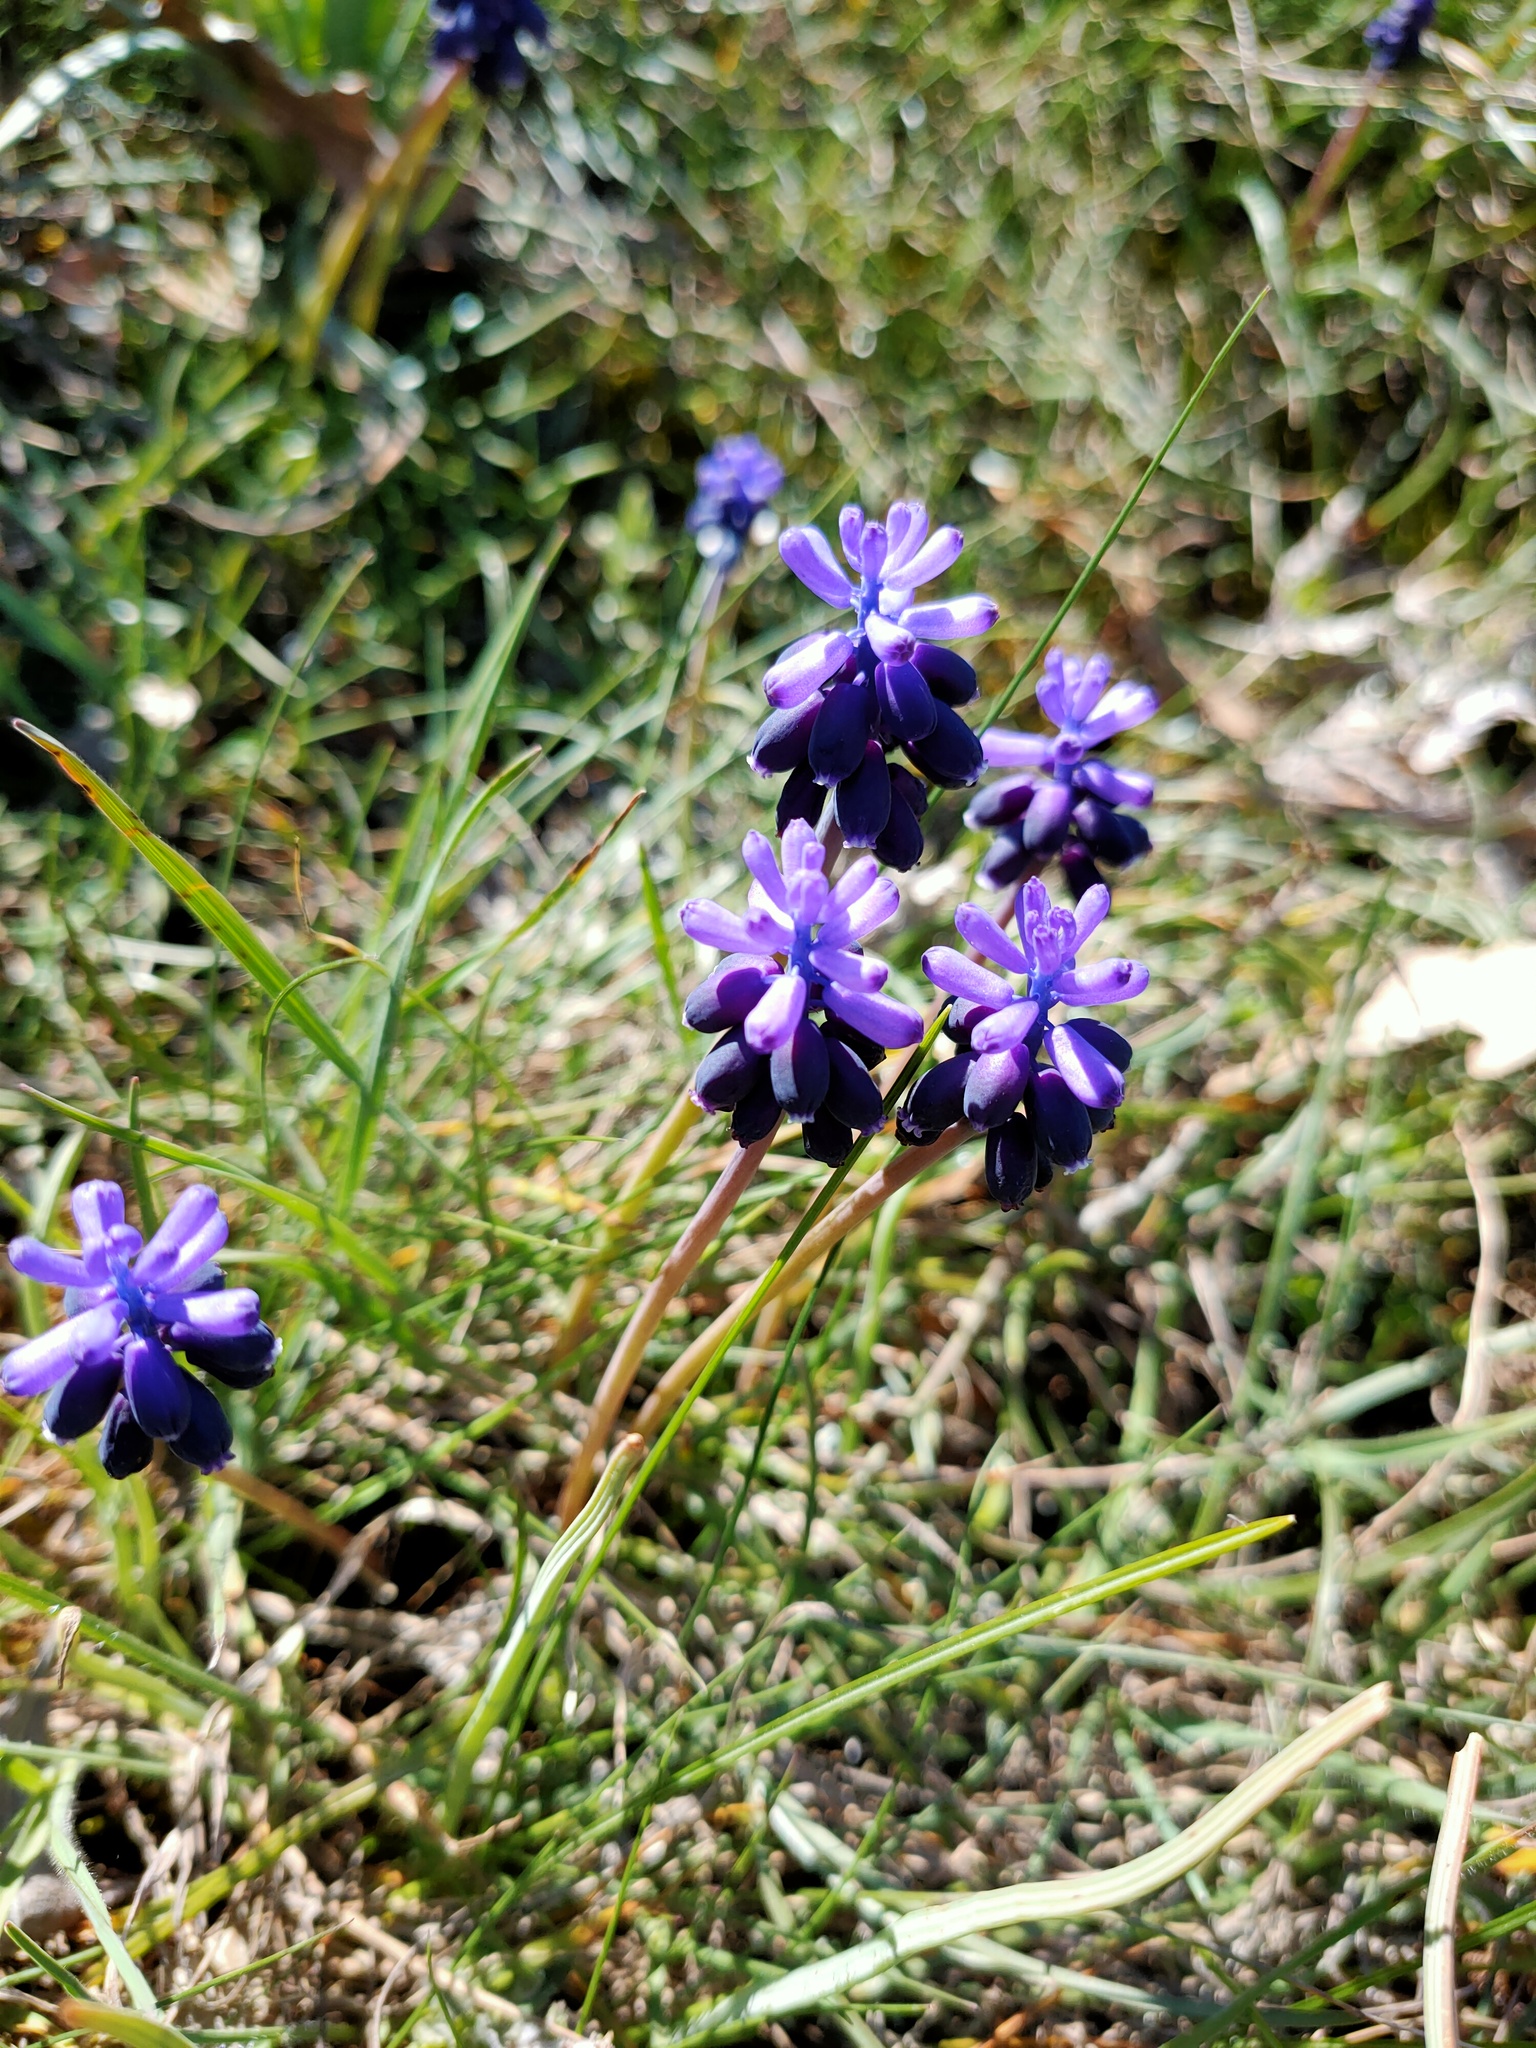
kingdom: Plantae
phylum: Tracheophyta
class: Liliopsida
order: Asparagales
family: Asparagaceae
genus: Muscari
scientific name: Muscari neglectum
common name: Grape-hyacinth
